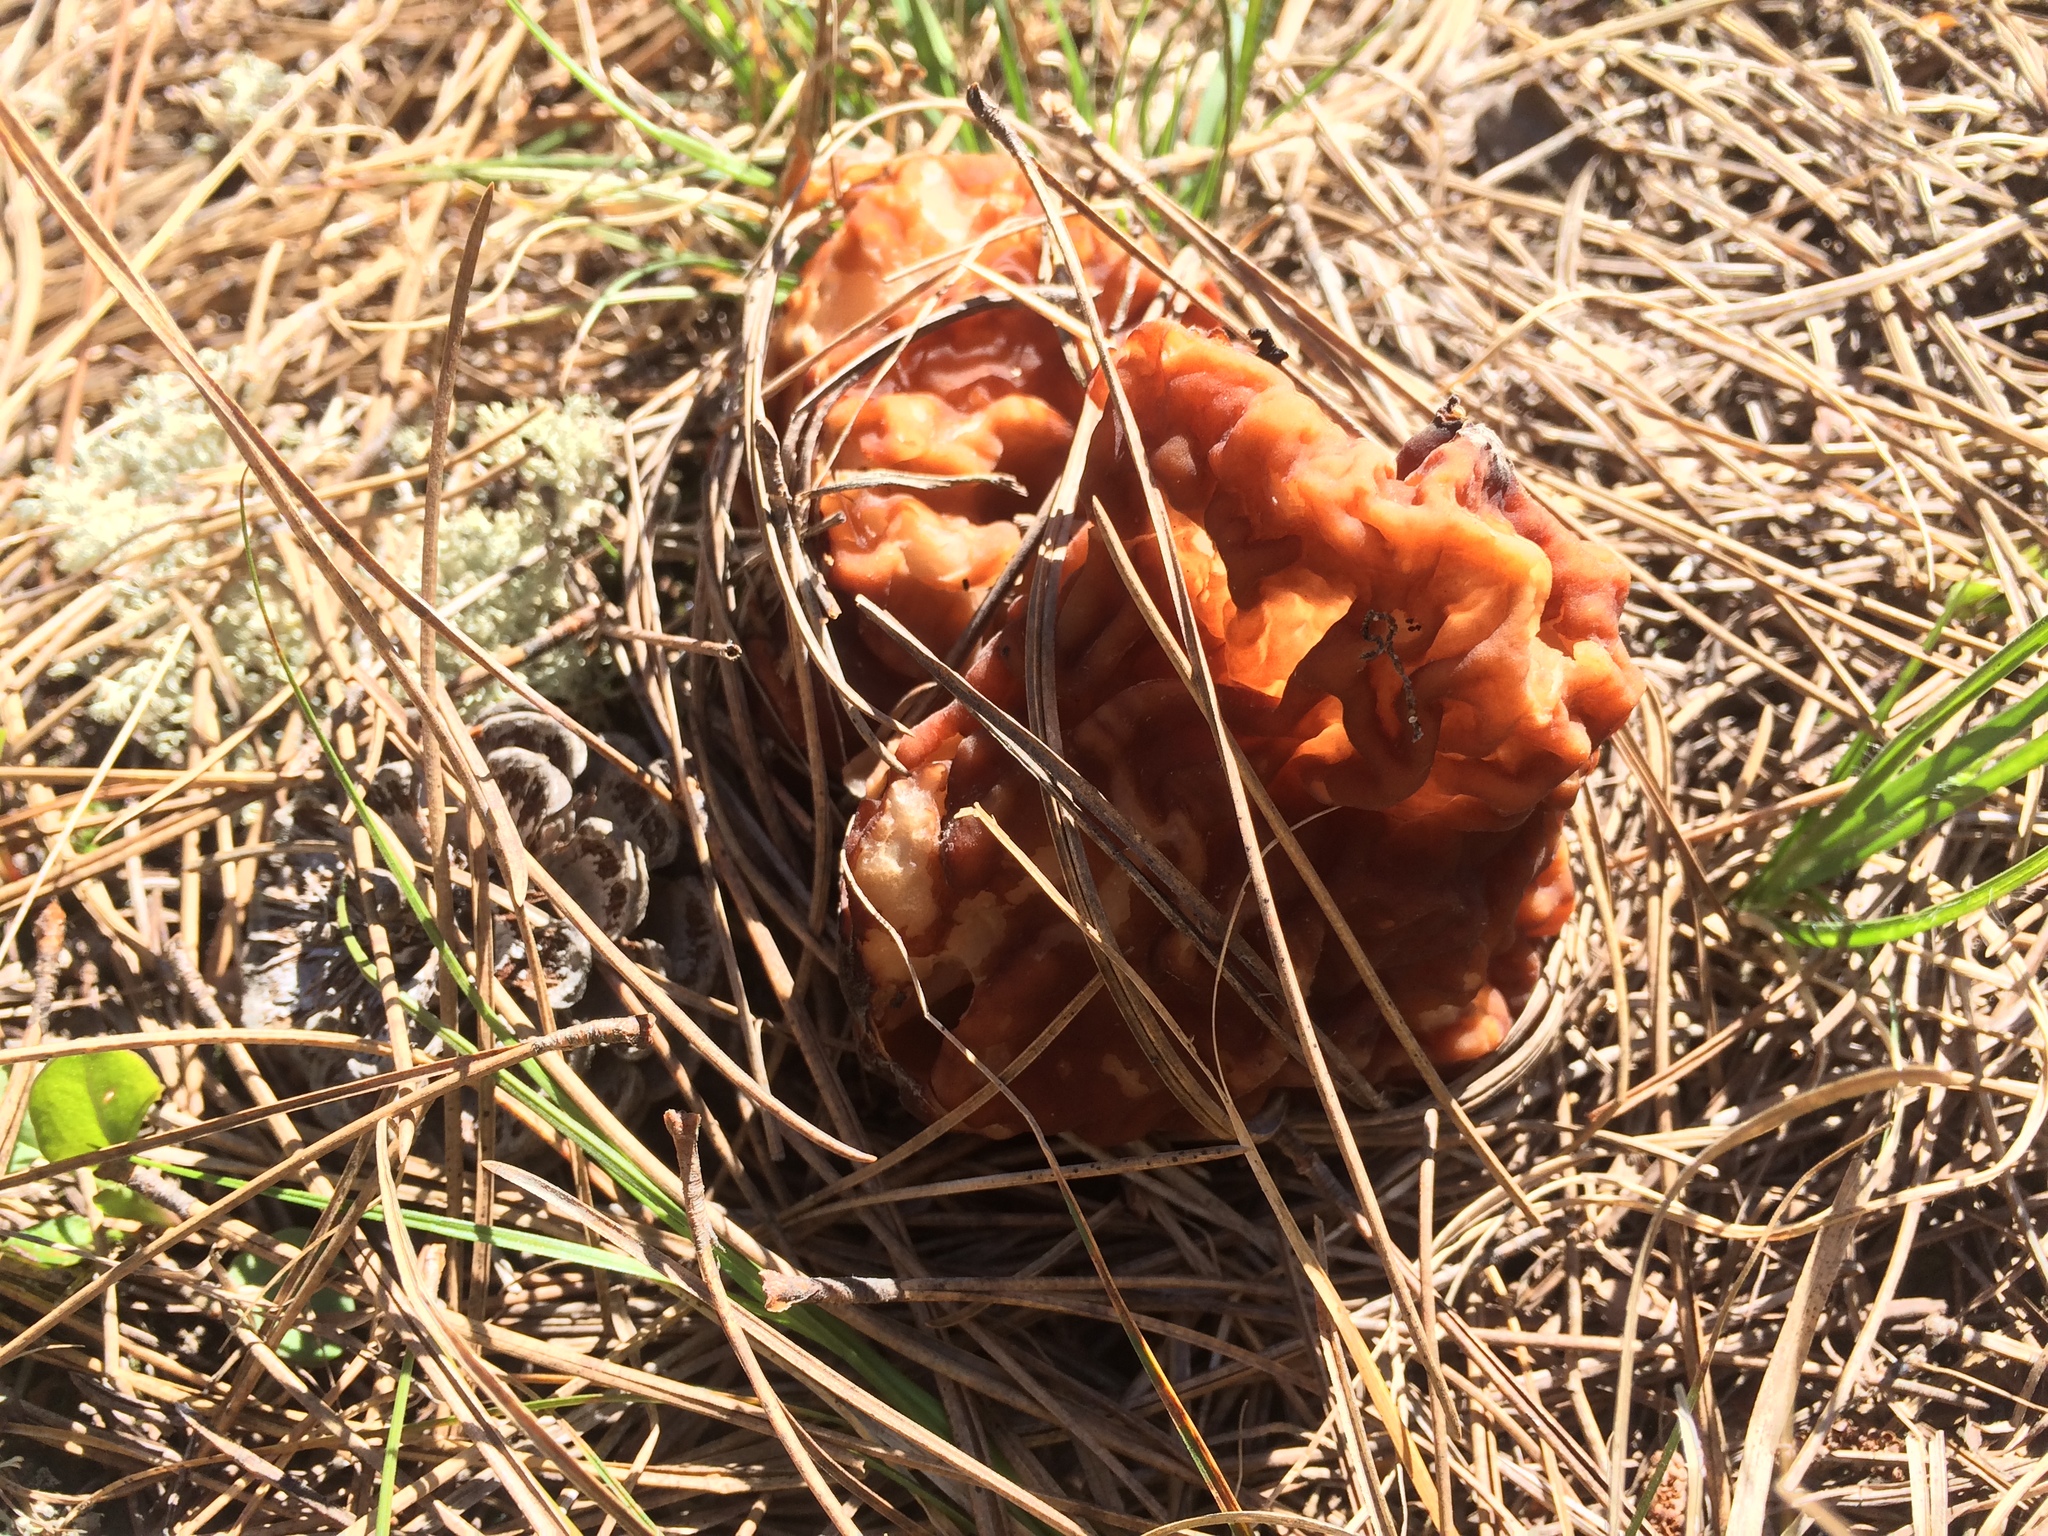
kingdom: Fungi
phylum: Ascomycota
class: Pezizomycetes
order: Pezizales
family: Discinaceae
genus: Gyromitra
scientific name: Gyromitra korfii
